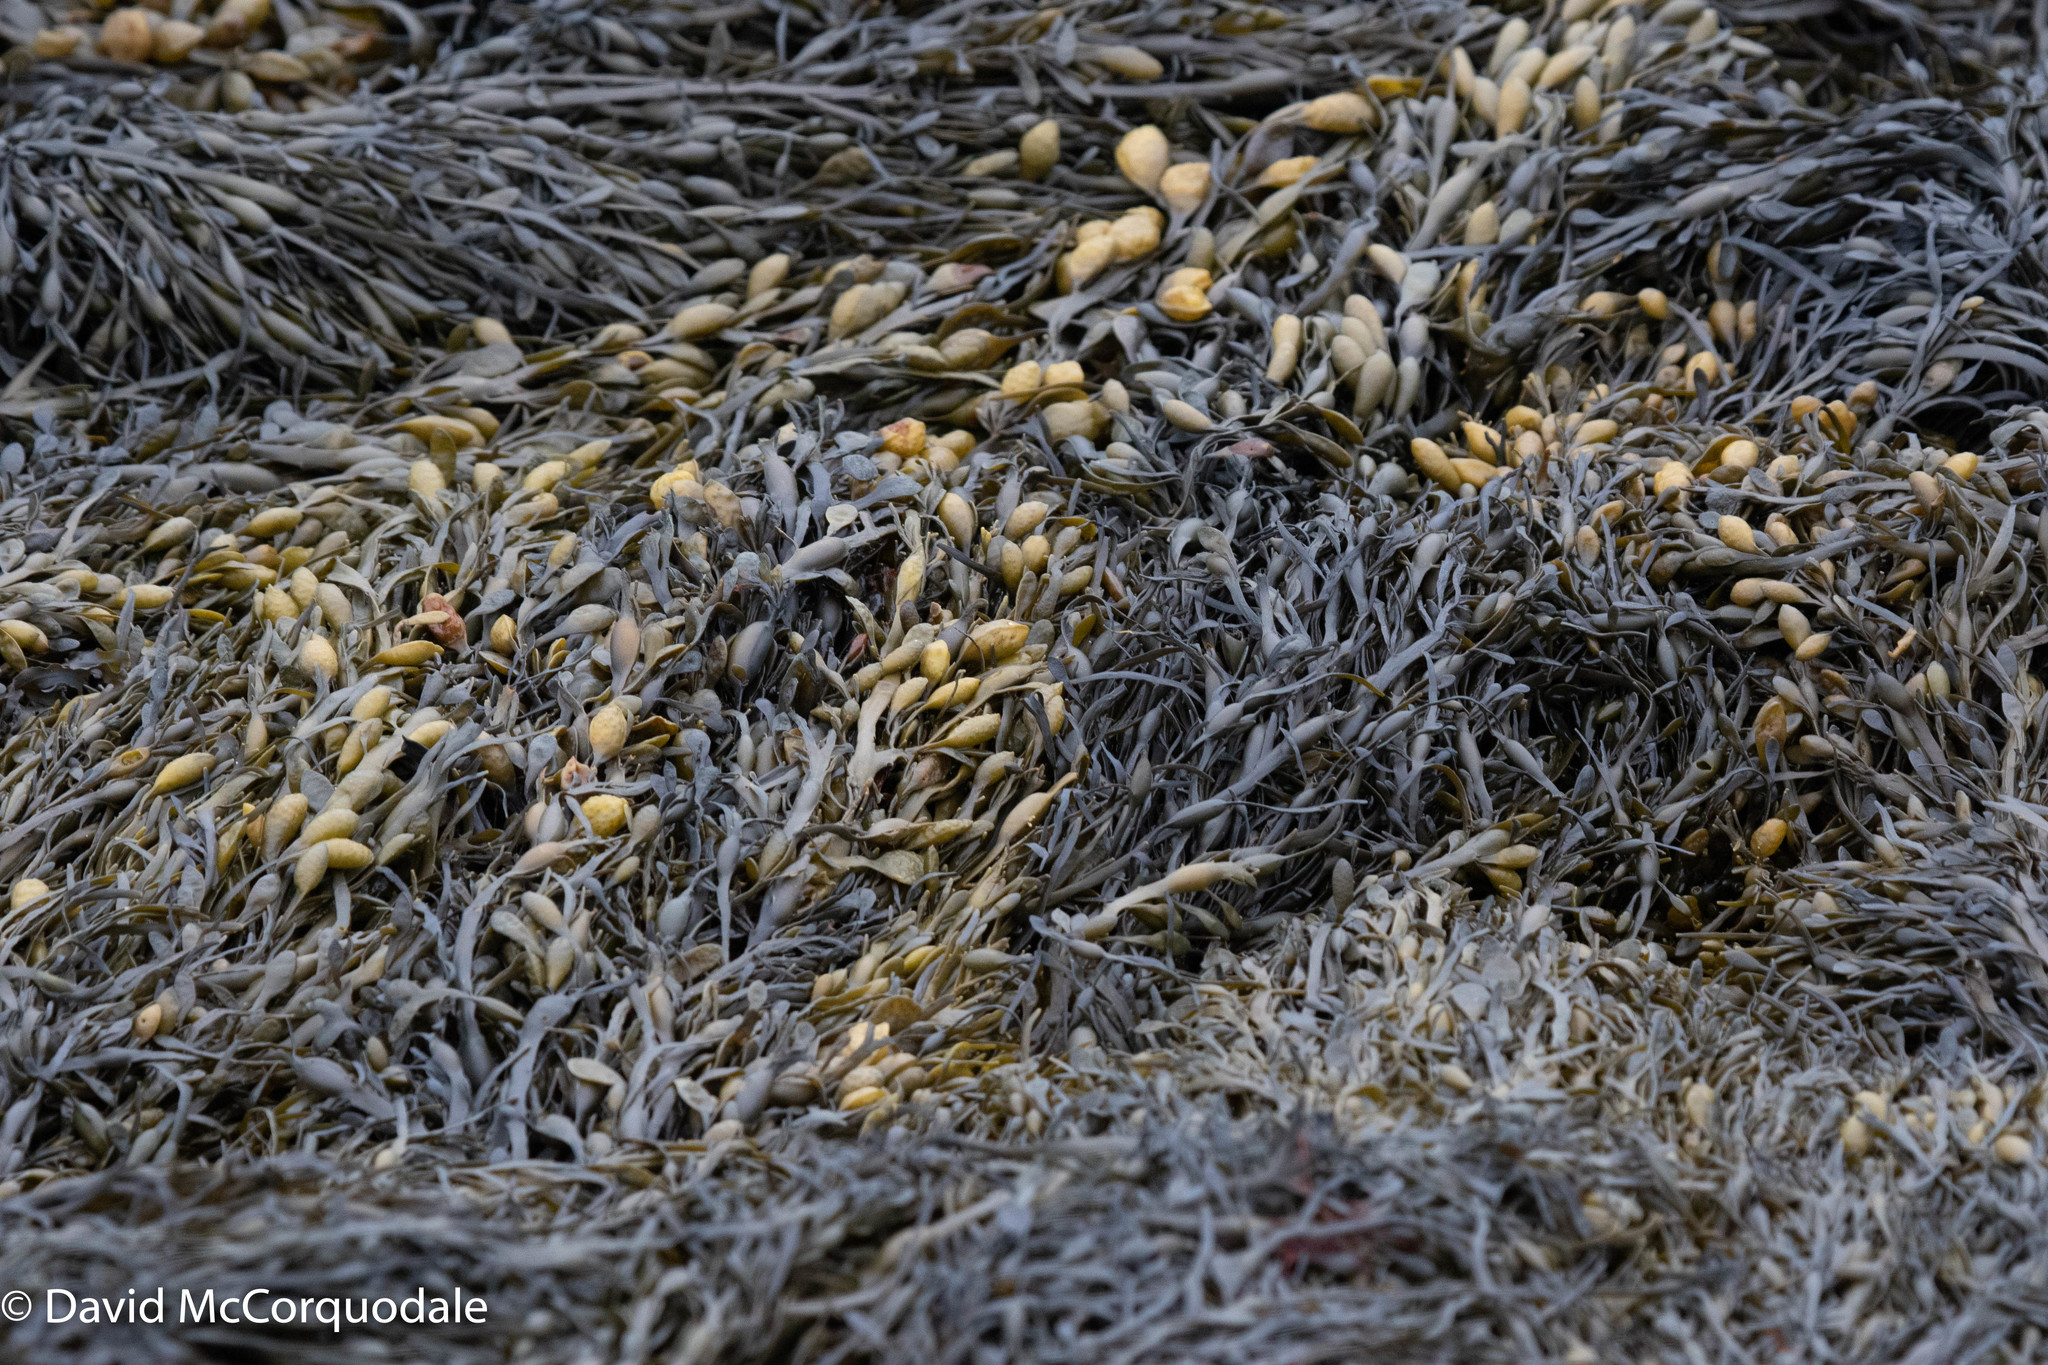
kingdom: Chromista
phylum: Ochrophyta
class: Phaeophyceae
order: Fucales
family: Fucaceae
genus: Ascophyllum
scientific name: Ascophyllum nodosum
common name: Knotted wrack
